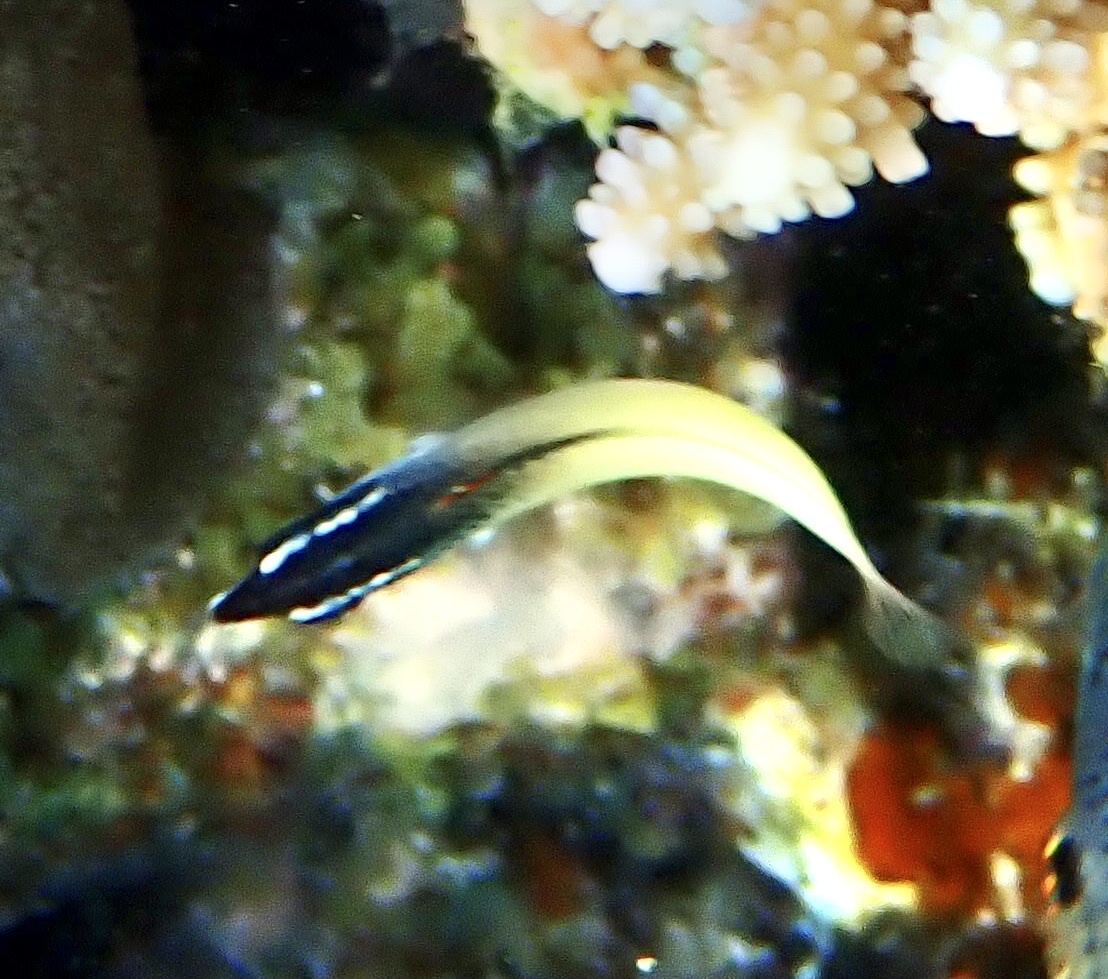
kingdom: Animalia
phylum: Chordata
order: Perciformes
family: Labridae
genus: Gomphosus
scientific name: Gomphosus klunzingeri
